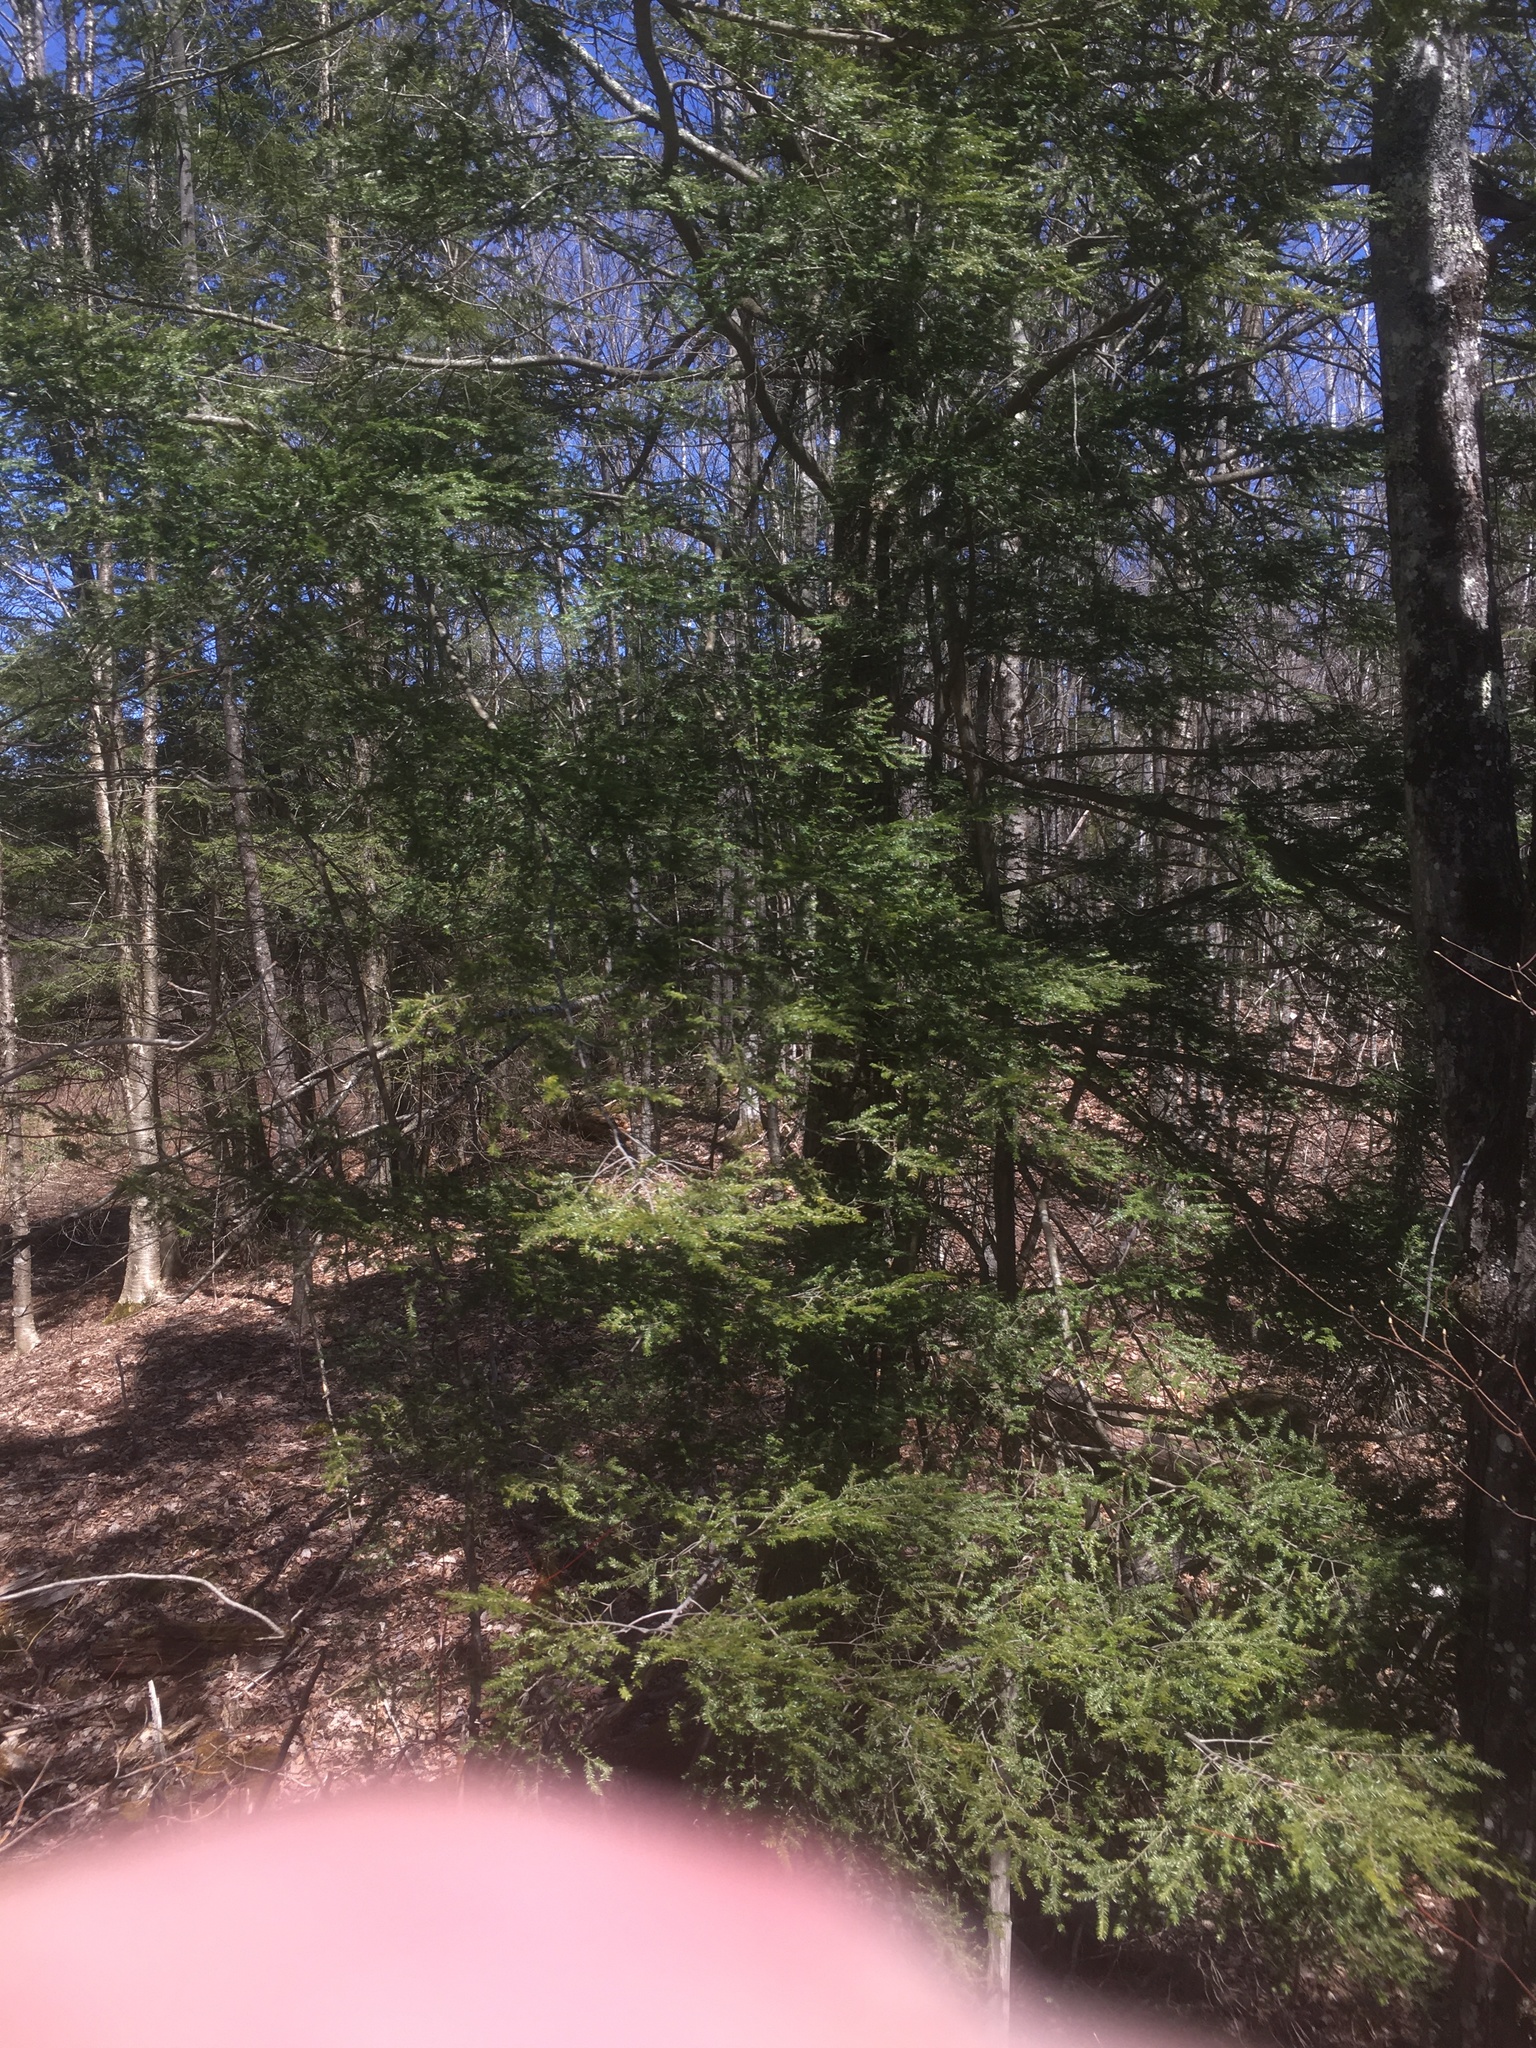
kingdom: Plantae
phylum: Tracheophyta
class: Pinopsida
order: Pinales
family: Pinaceae
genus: Tsuga
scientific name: Tsuga canadensis
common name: Eastern hemlock
